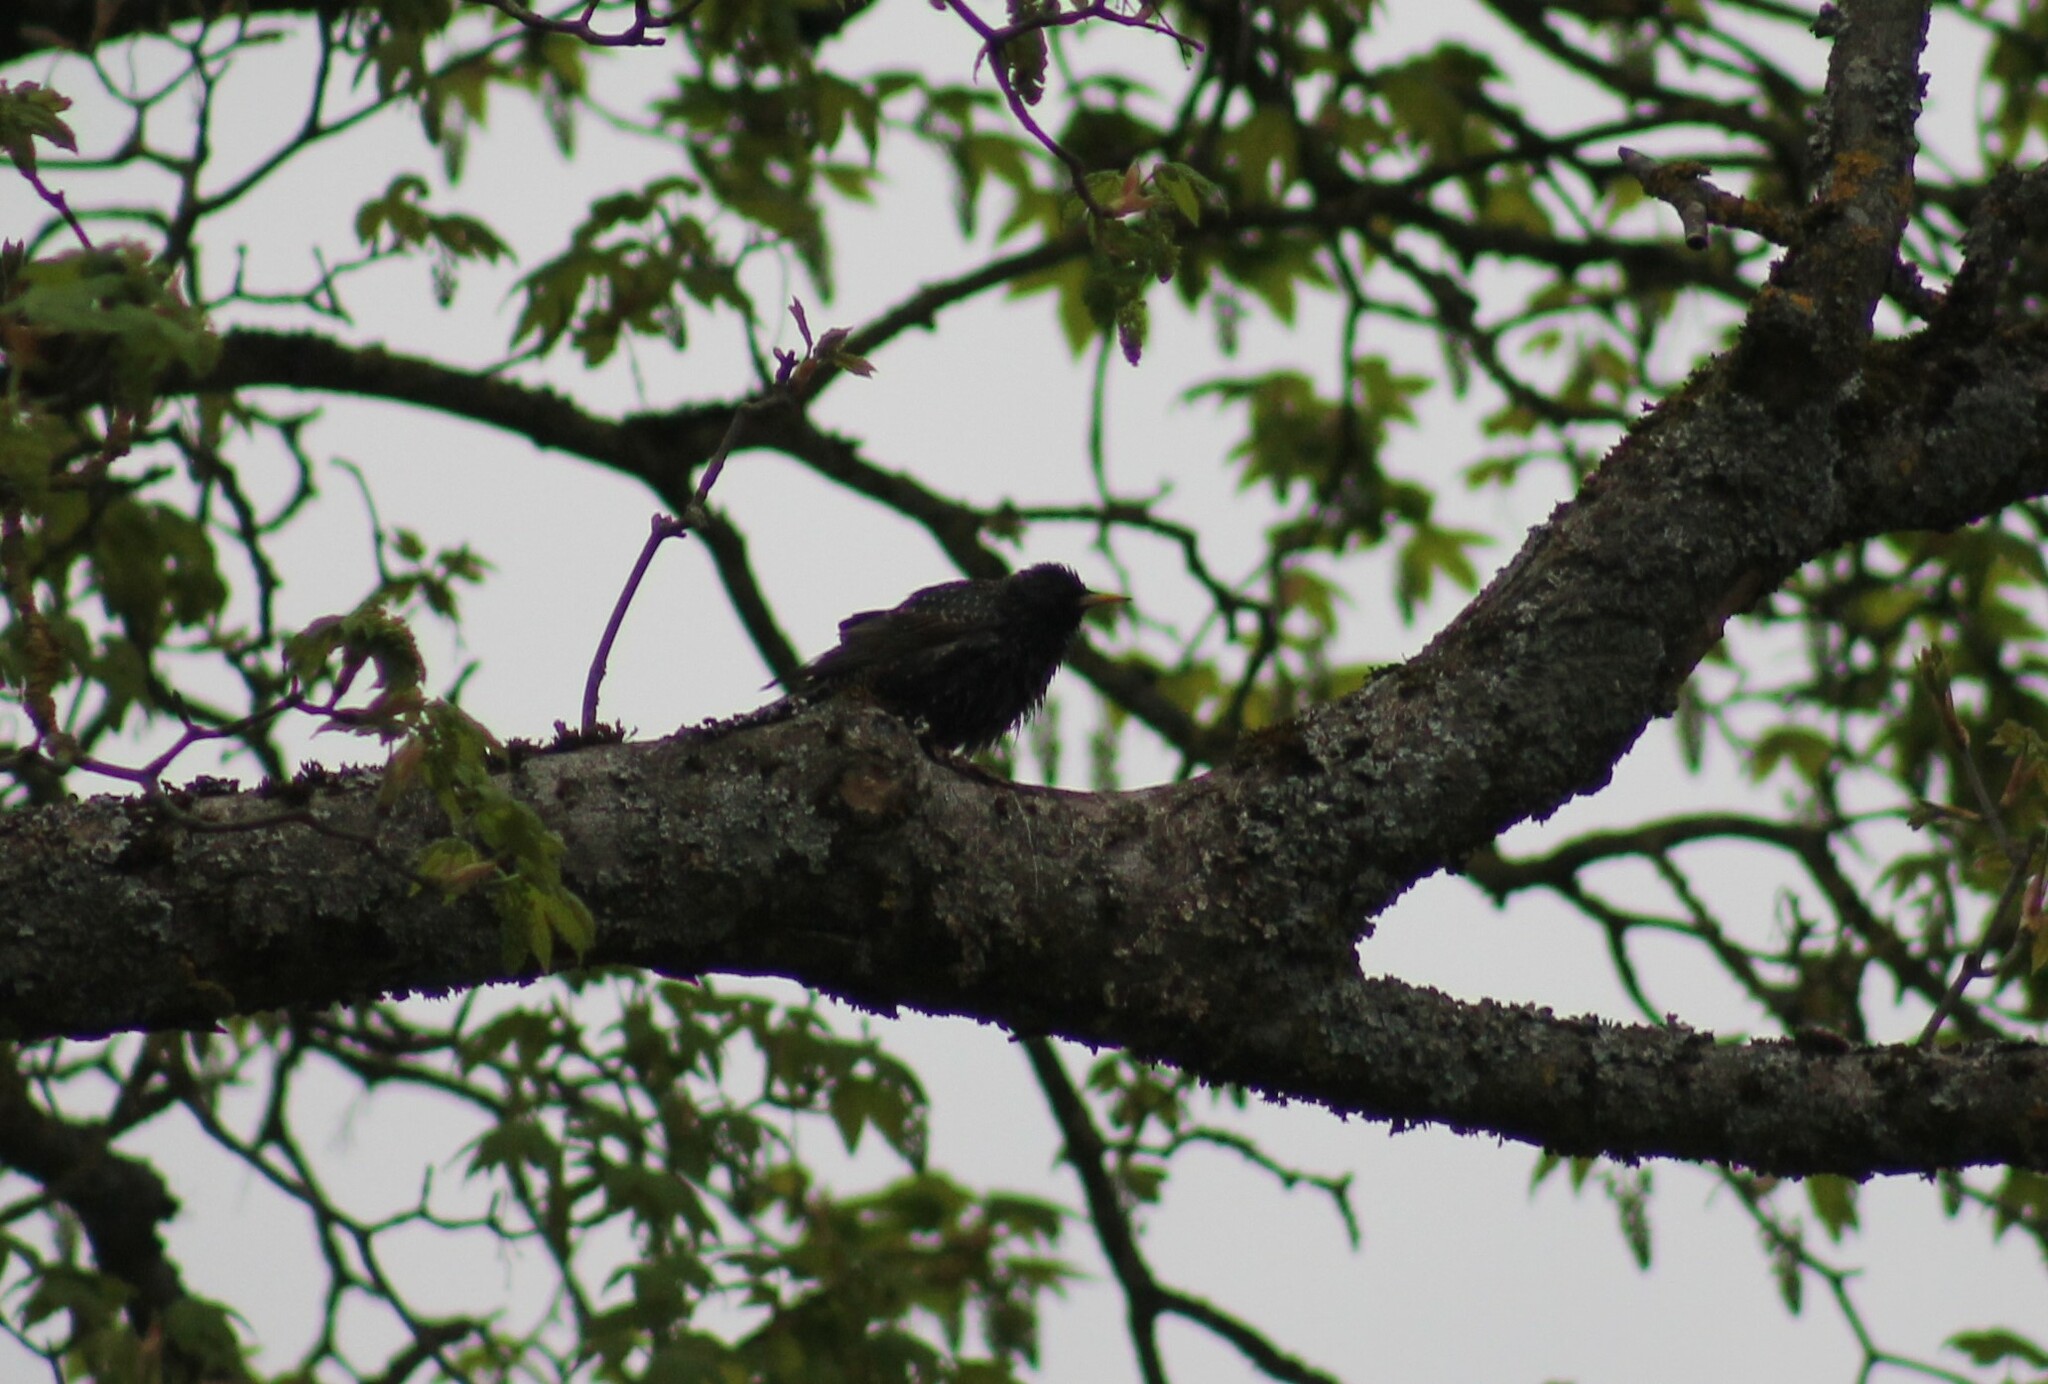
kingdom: Animalia
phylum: Chordata
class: Aves
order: Passeriformes
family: Sturnidae
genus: Sturnus
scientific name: Sturnus vulgaris
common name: Common starling
